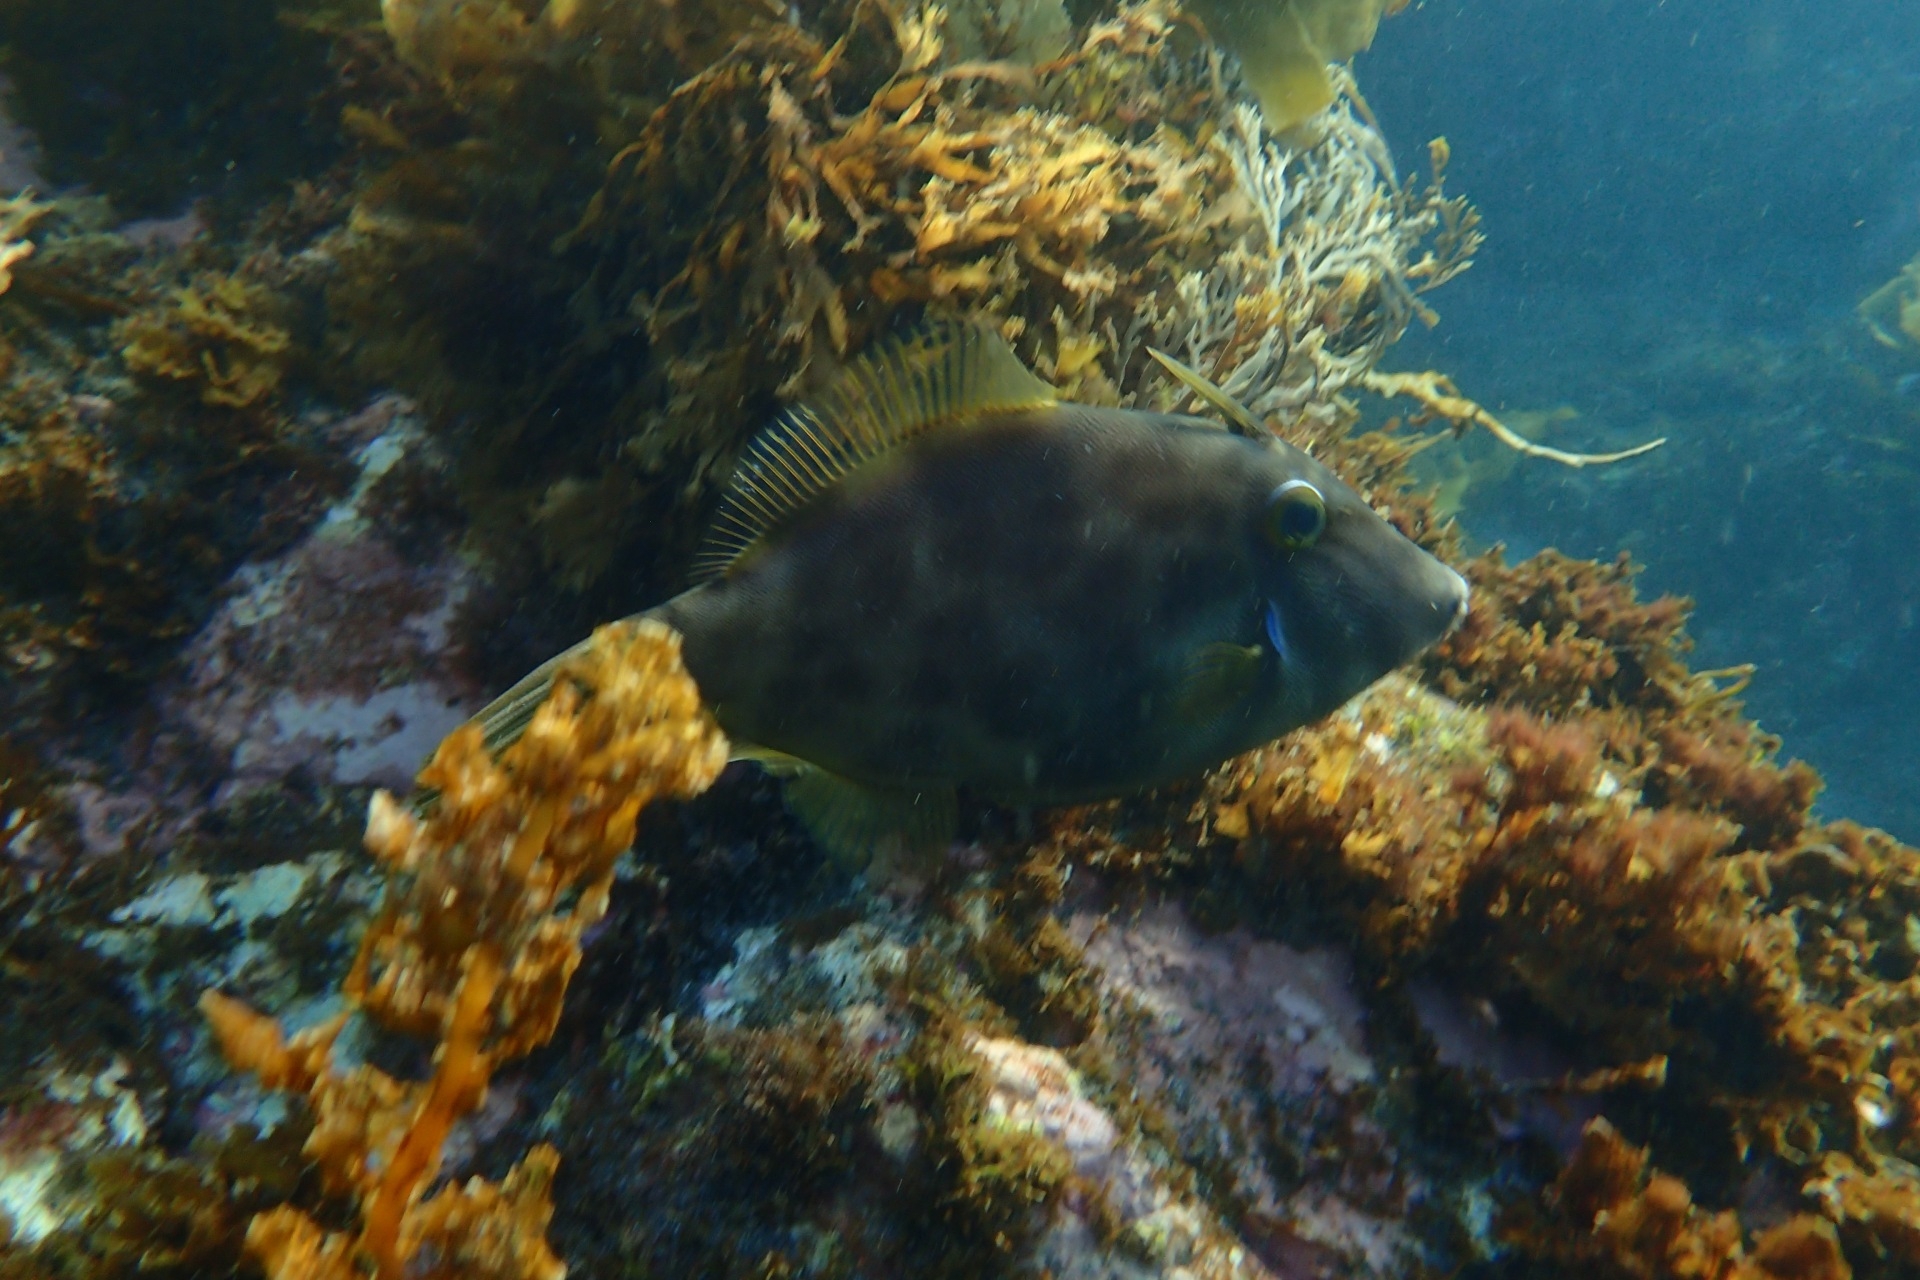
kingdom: Animalia
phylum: Chordata
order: Tetraodontiformes
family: Monacanthidae
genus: Meuschenia
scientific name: Meuschenia scaber
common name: Cosmopolitan leatherjacket
